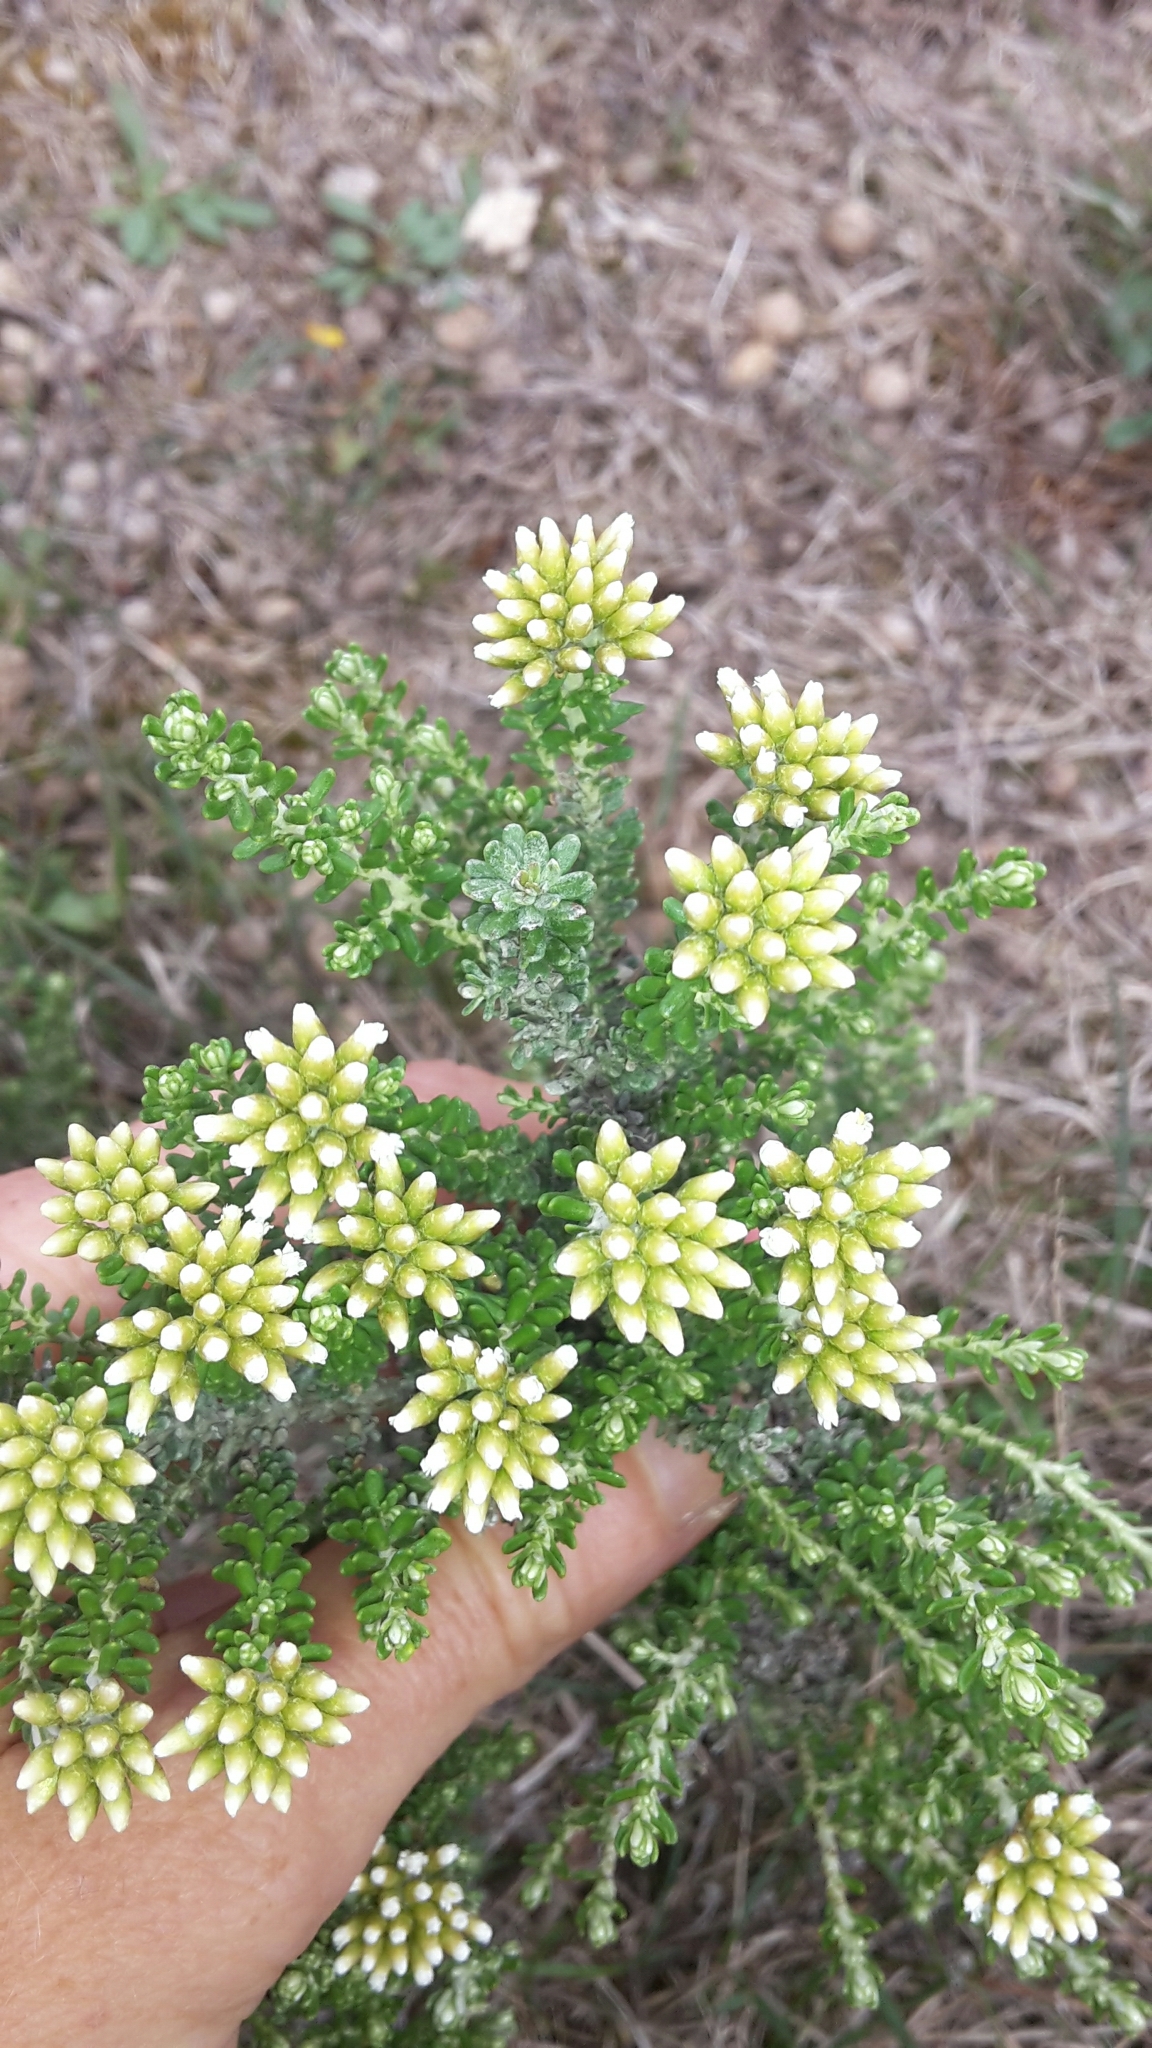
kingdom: Plantae
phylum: Tracheophyta
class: Magnoliopsida
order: Asterales
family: Asteraceae
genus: Ozothamnus
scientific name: Ozothamnus leptophyllus
